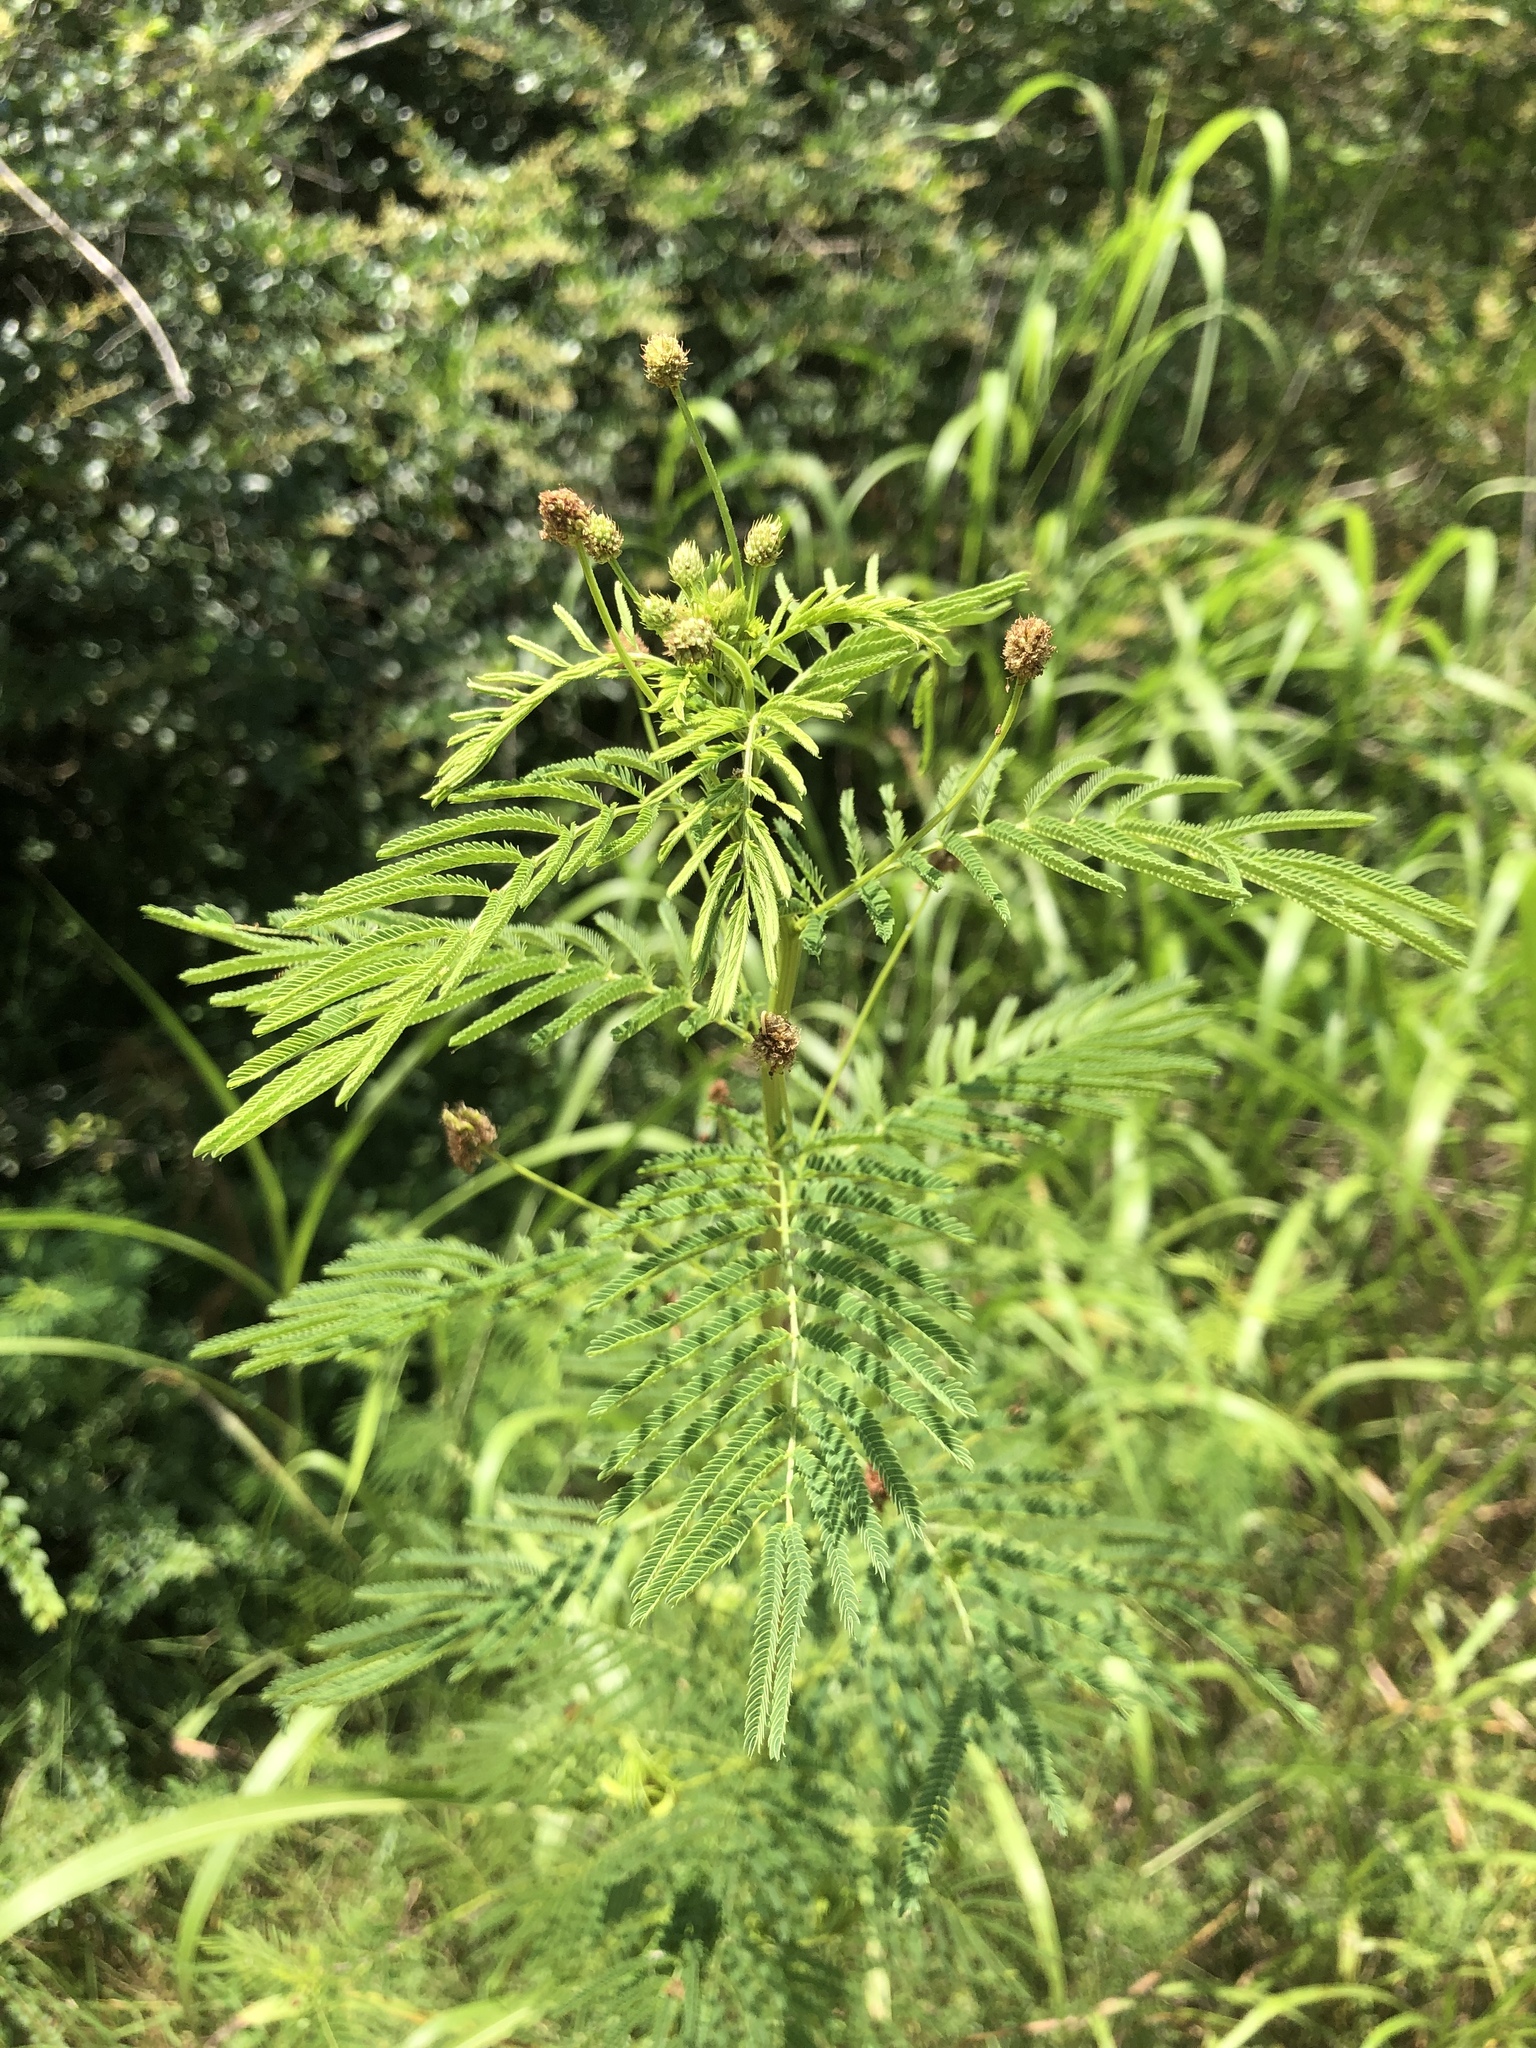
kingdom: Plantae
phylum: Tracheophyta
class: Magnoliopsida
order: Fabales
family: Fabaceae
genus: Desmanthus
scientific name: Desmanthus illinoensis
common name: Illinois bundle-flower
